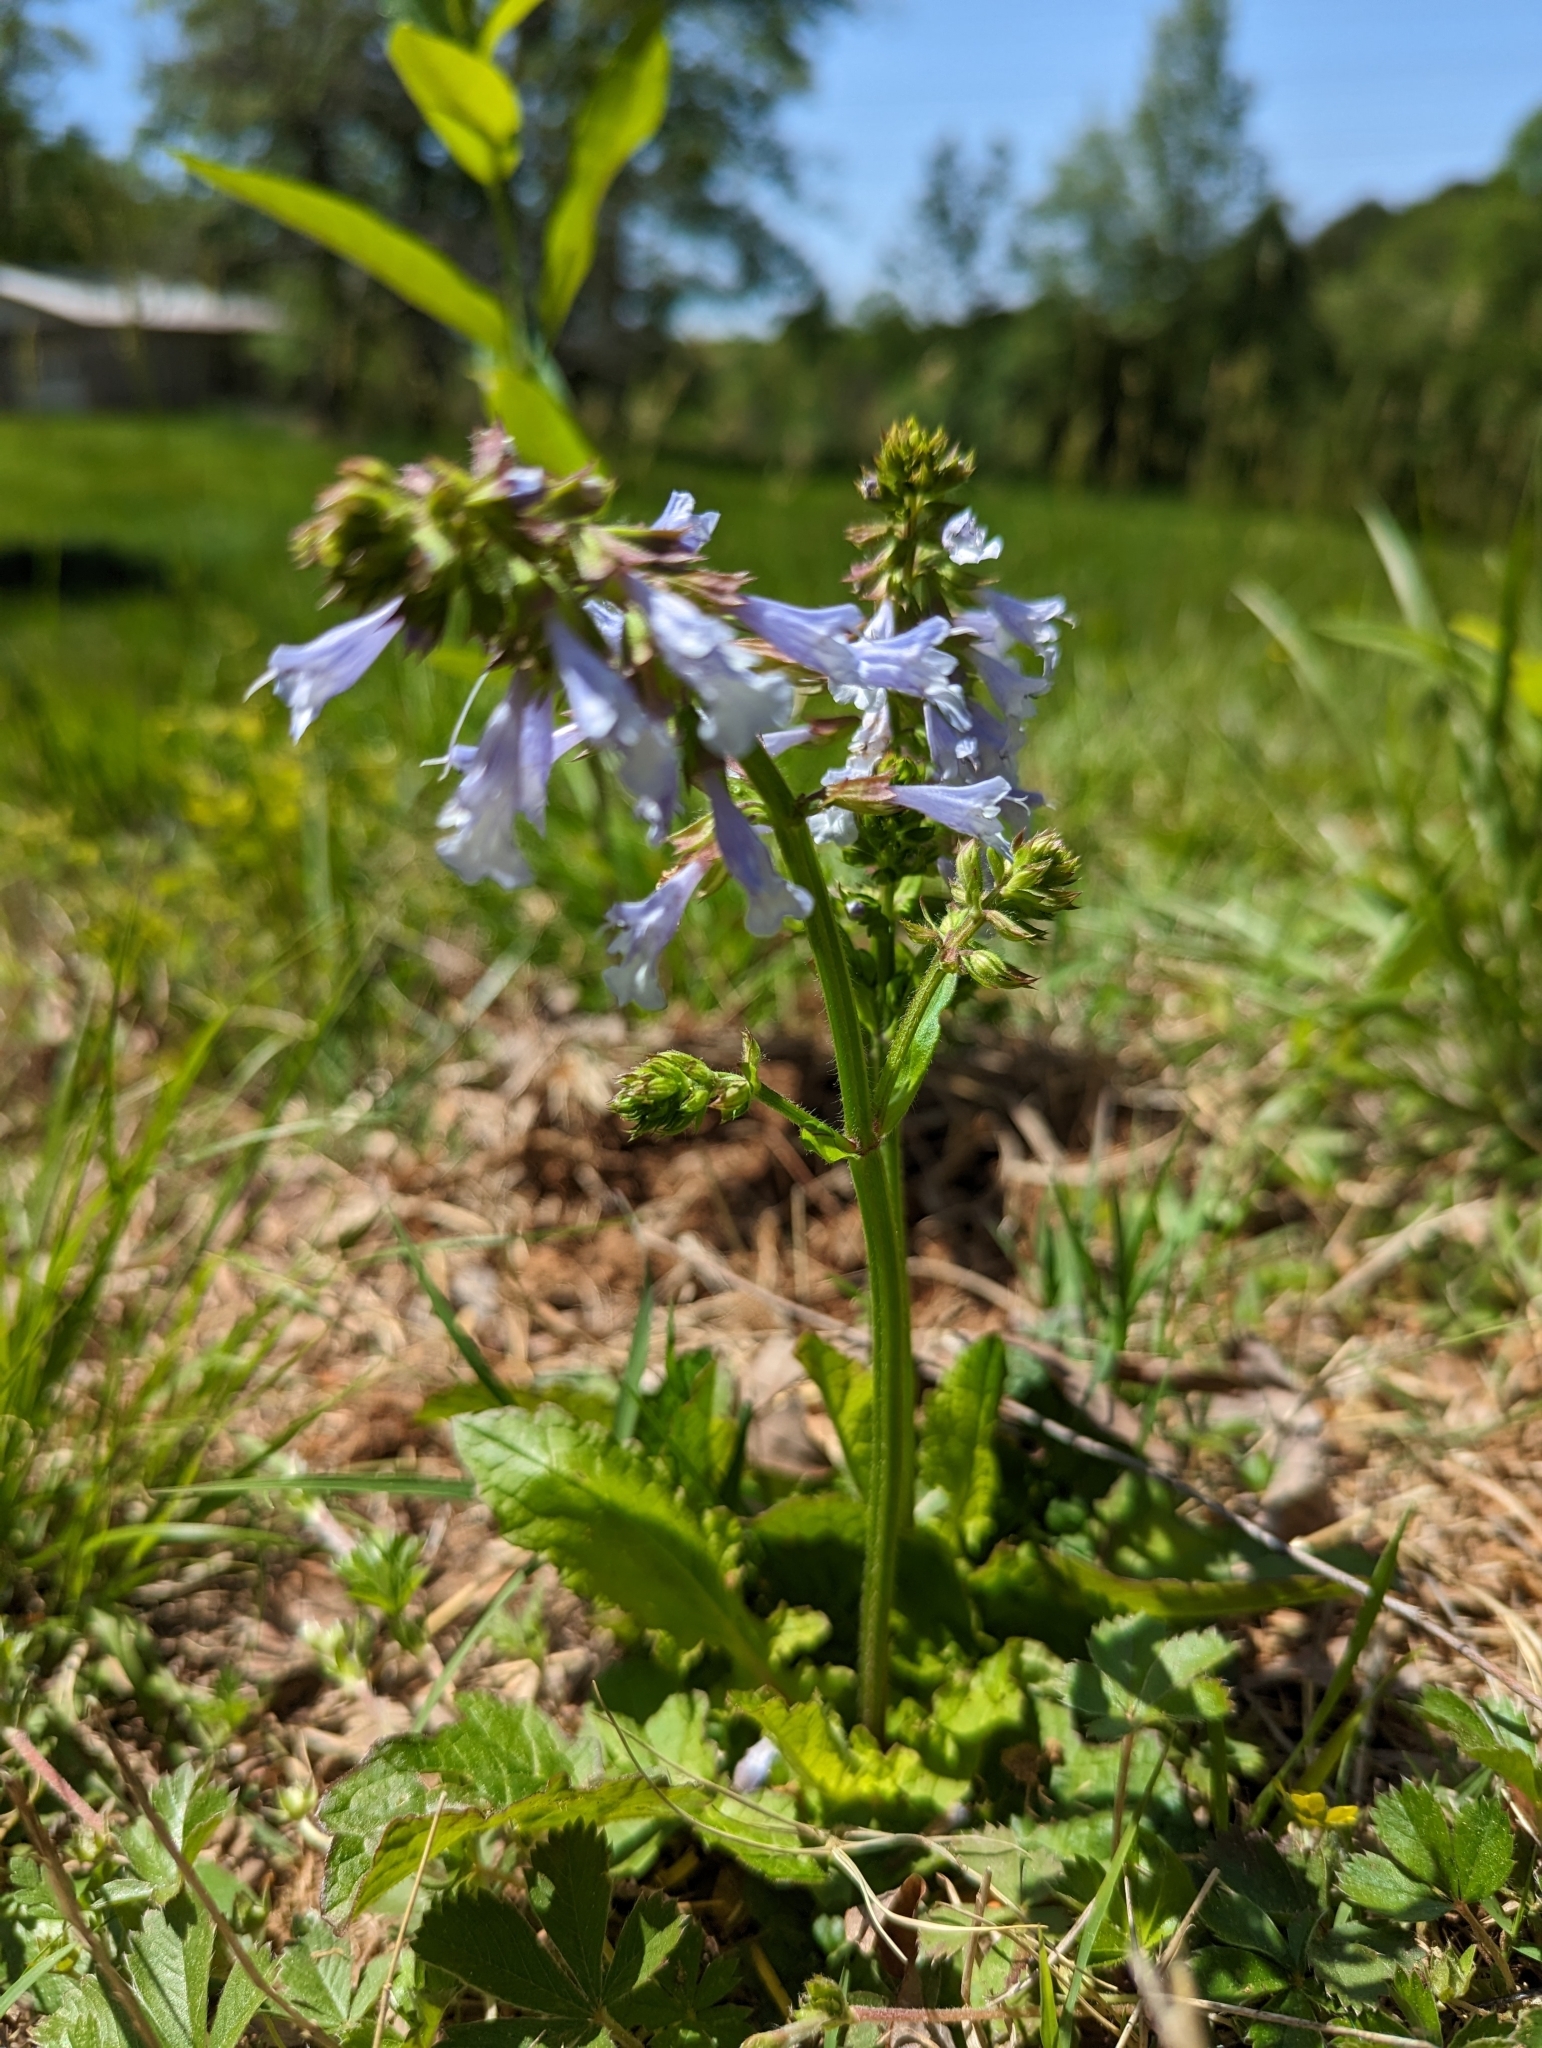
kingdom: Plantae
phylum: Tracheophyta
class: Magnoliopsida
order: Lamiales
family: Lamiaceae
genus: Salvia
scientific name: Salvia lyrata
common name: Cancerweed
